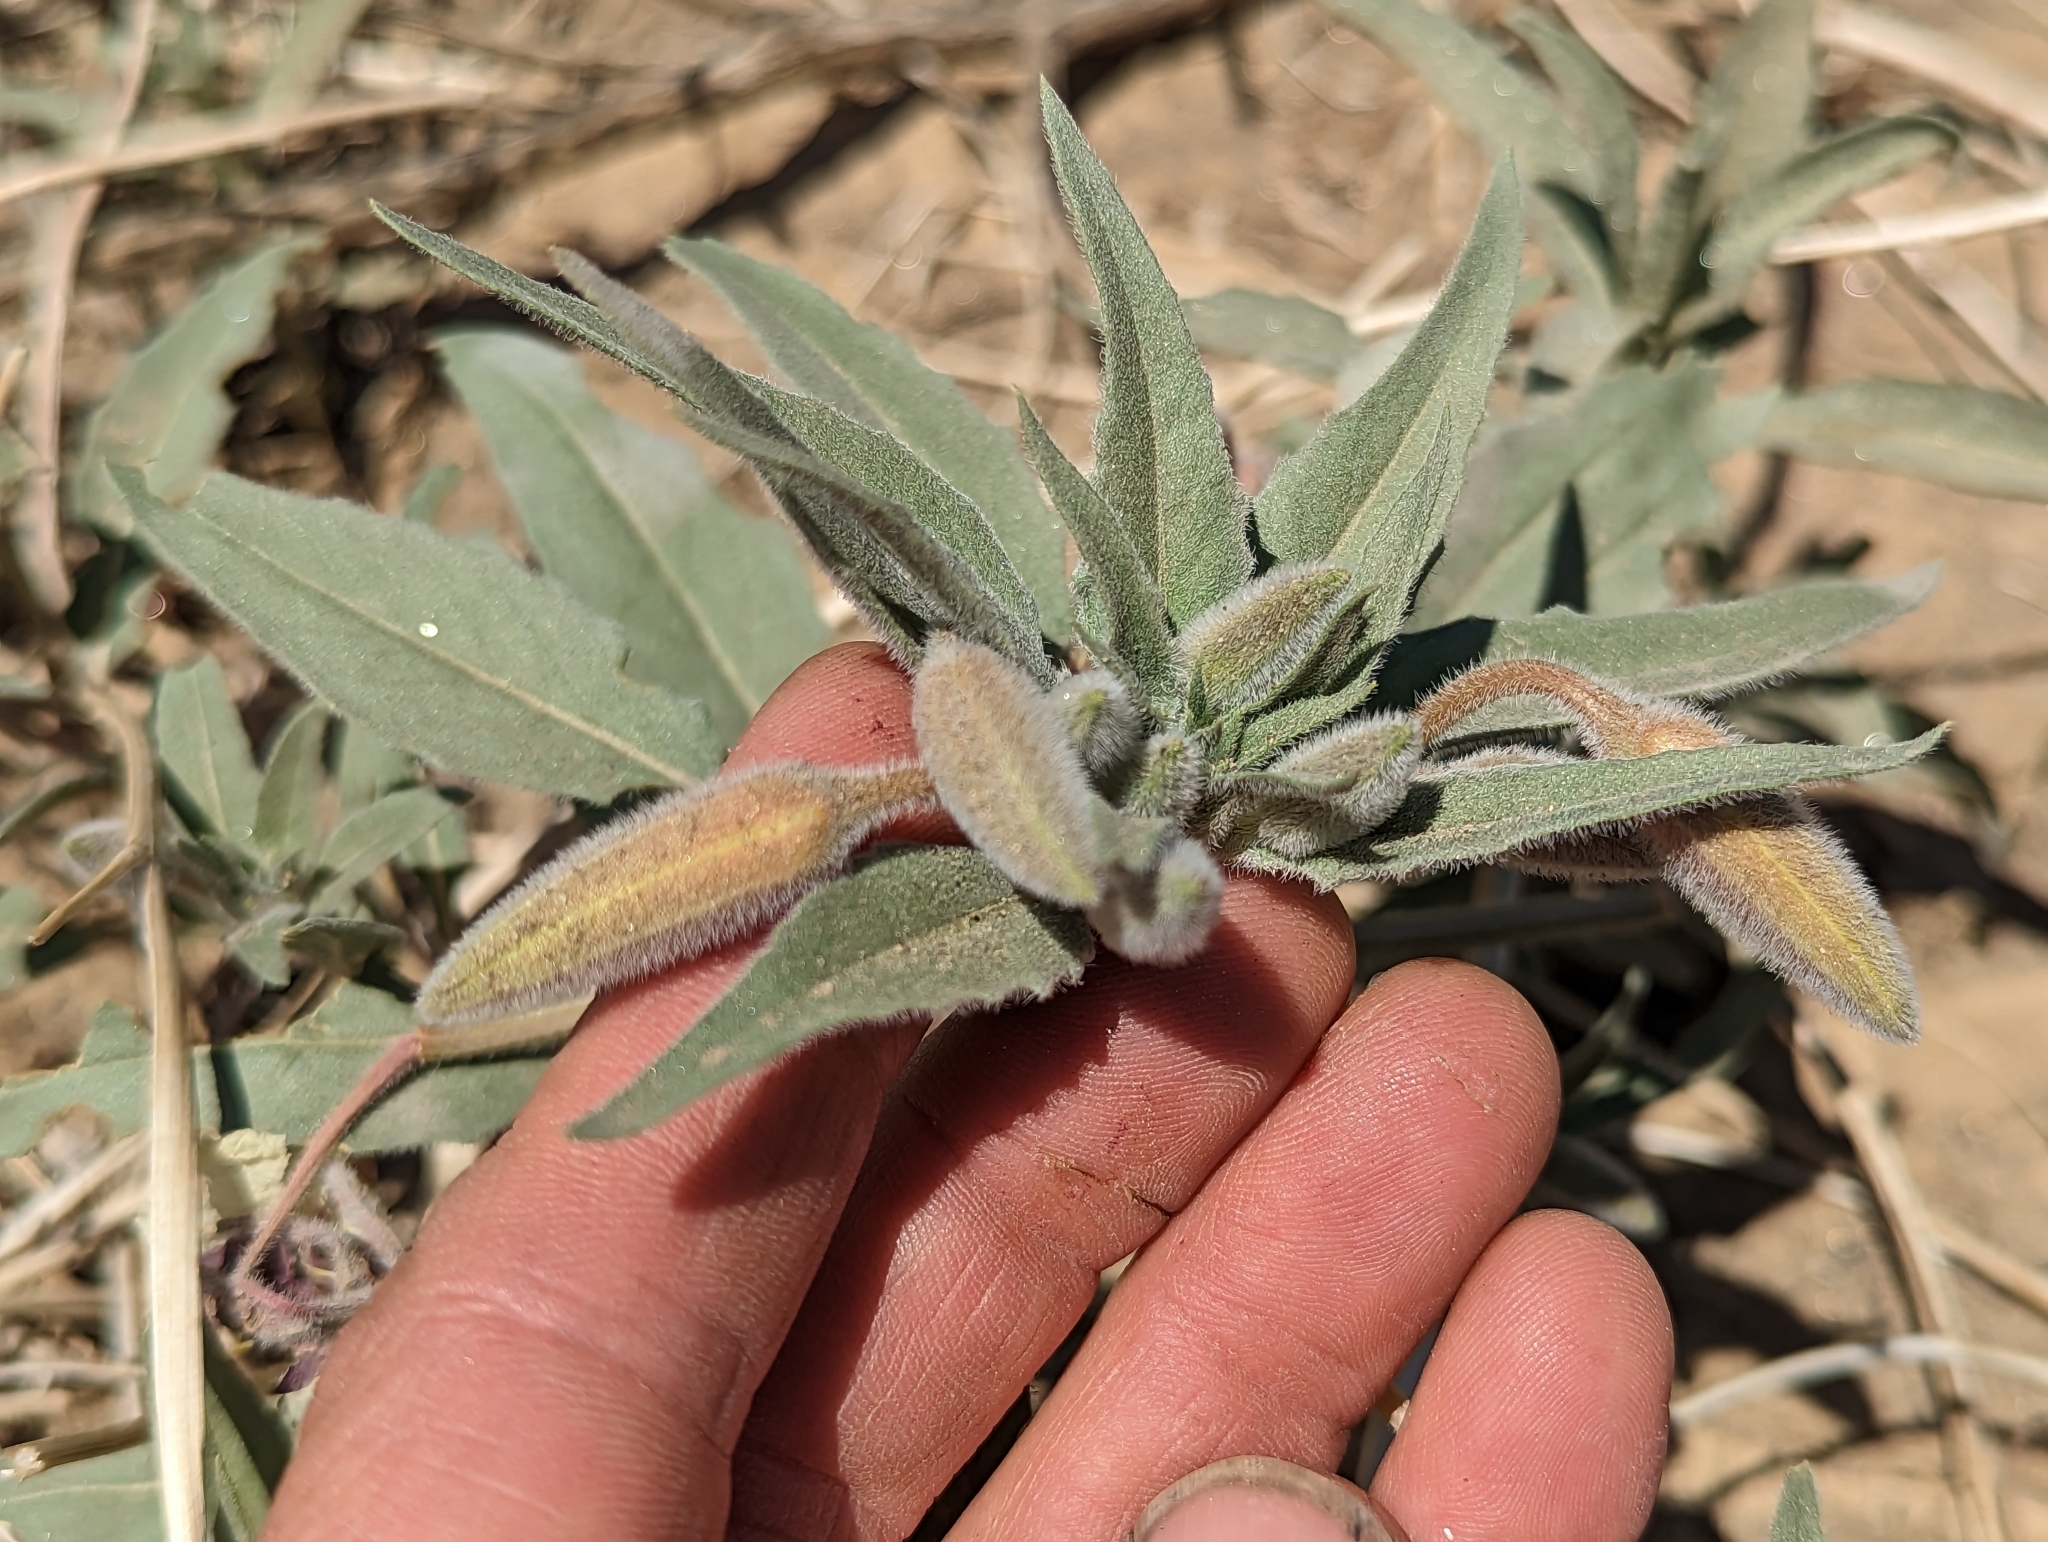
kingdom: Plantae
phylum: Tracheophyta
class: Magnoliopsida
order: Myrtales
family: Onagraceae
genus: Oenothera
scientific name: Oenothera deltoides
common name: Basket evening-primrose
